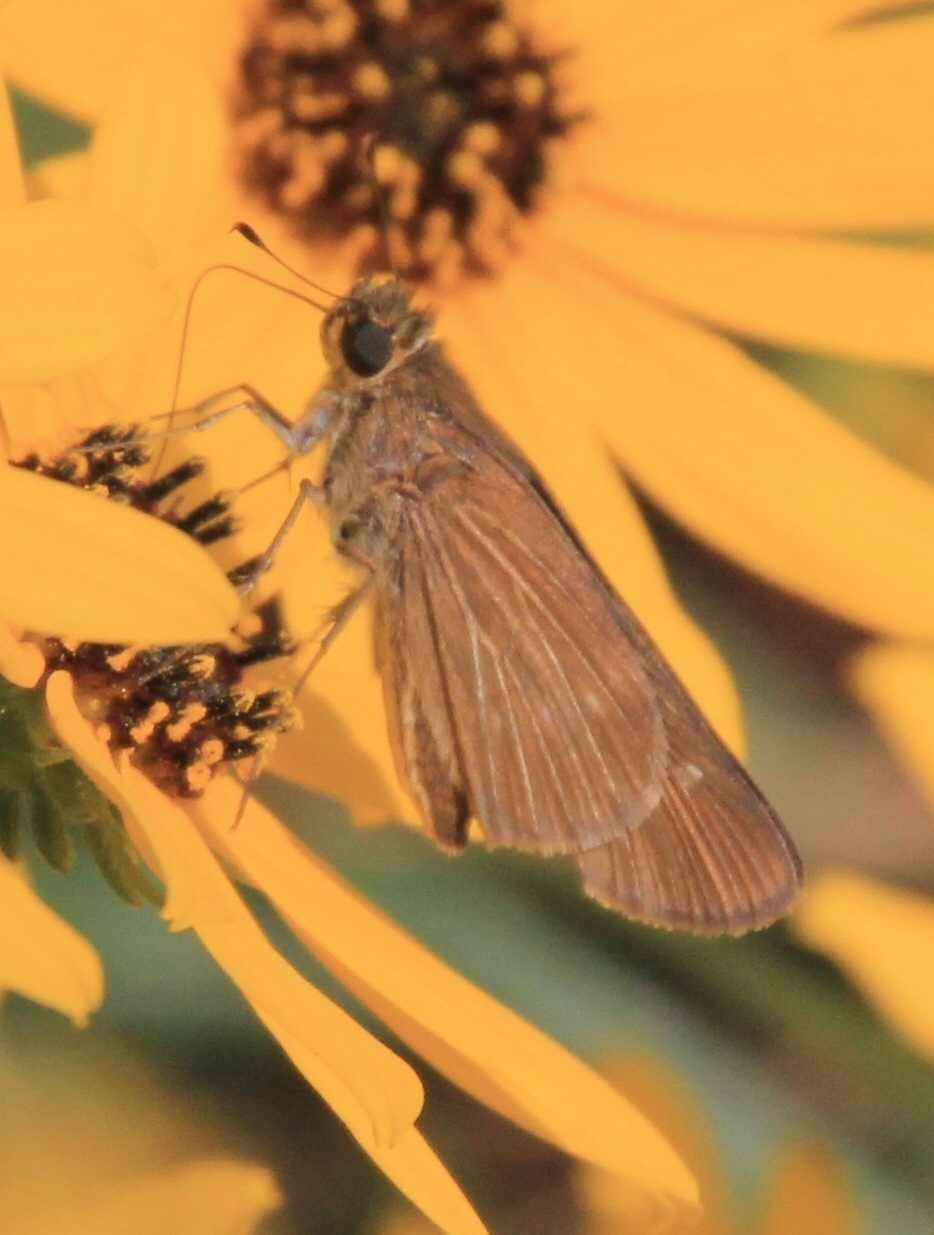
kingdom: Animalia
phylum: Arthropoda
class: Insecta
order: Lepidoptera
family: Hesperiidae
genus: Panoquina
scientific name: Panoquina ocola
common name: Ocola skipper
